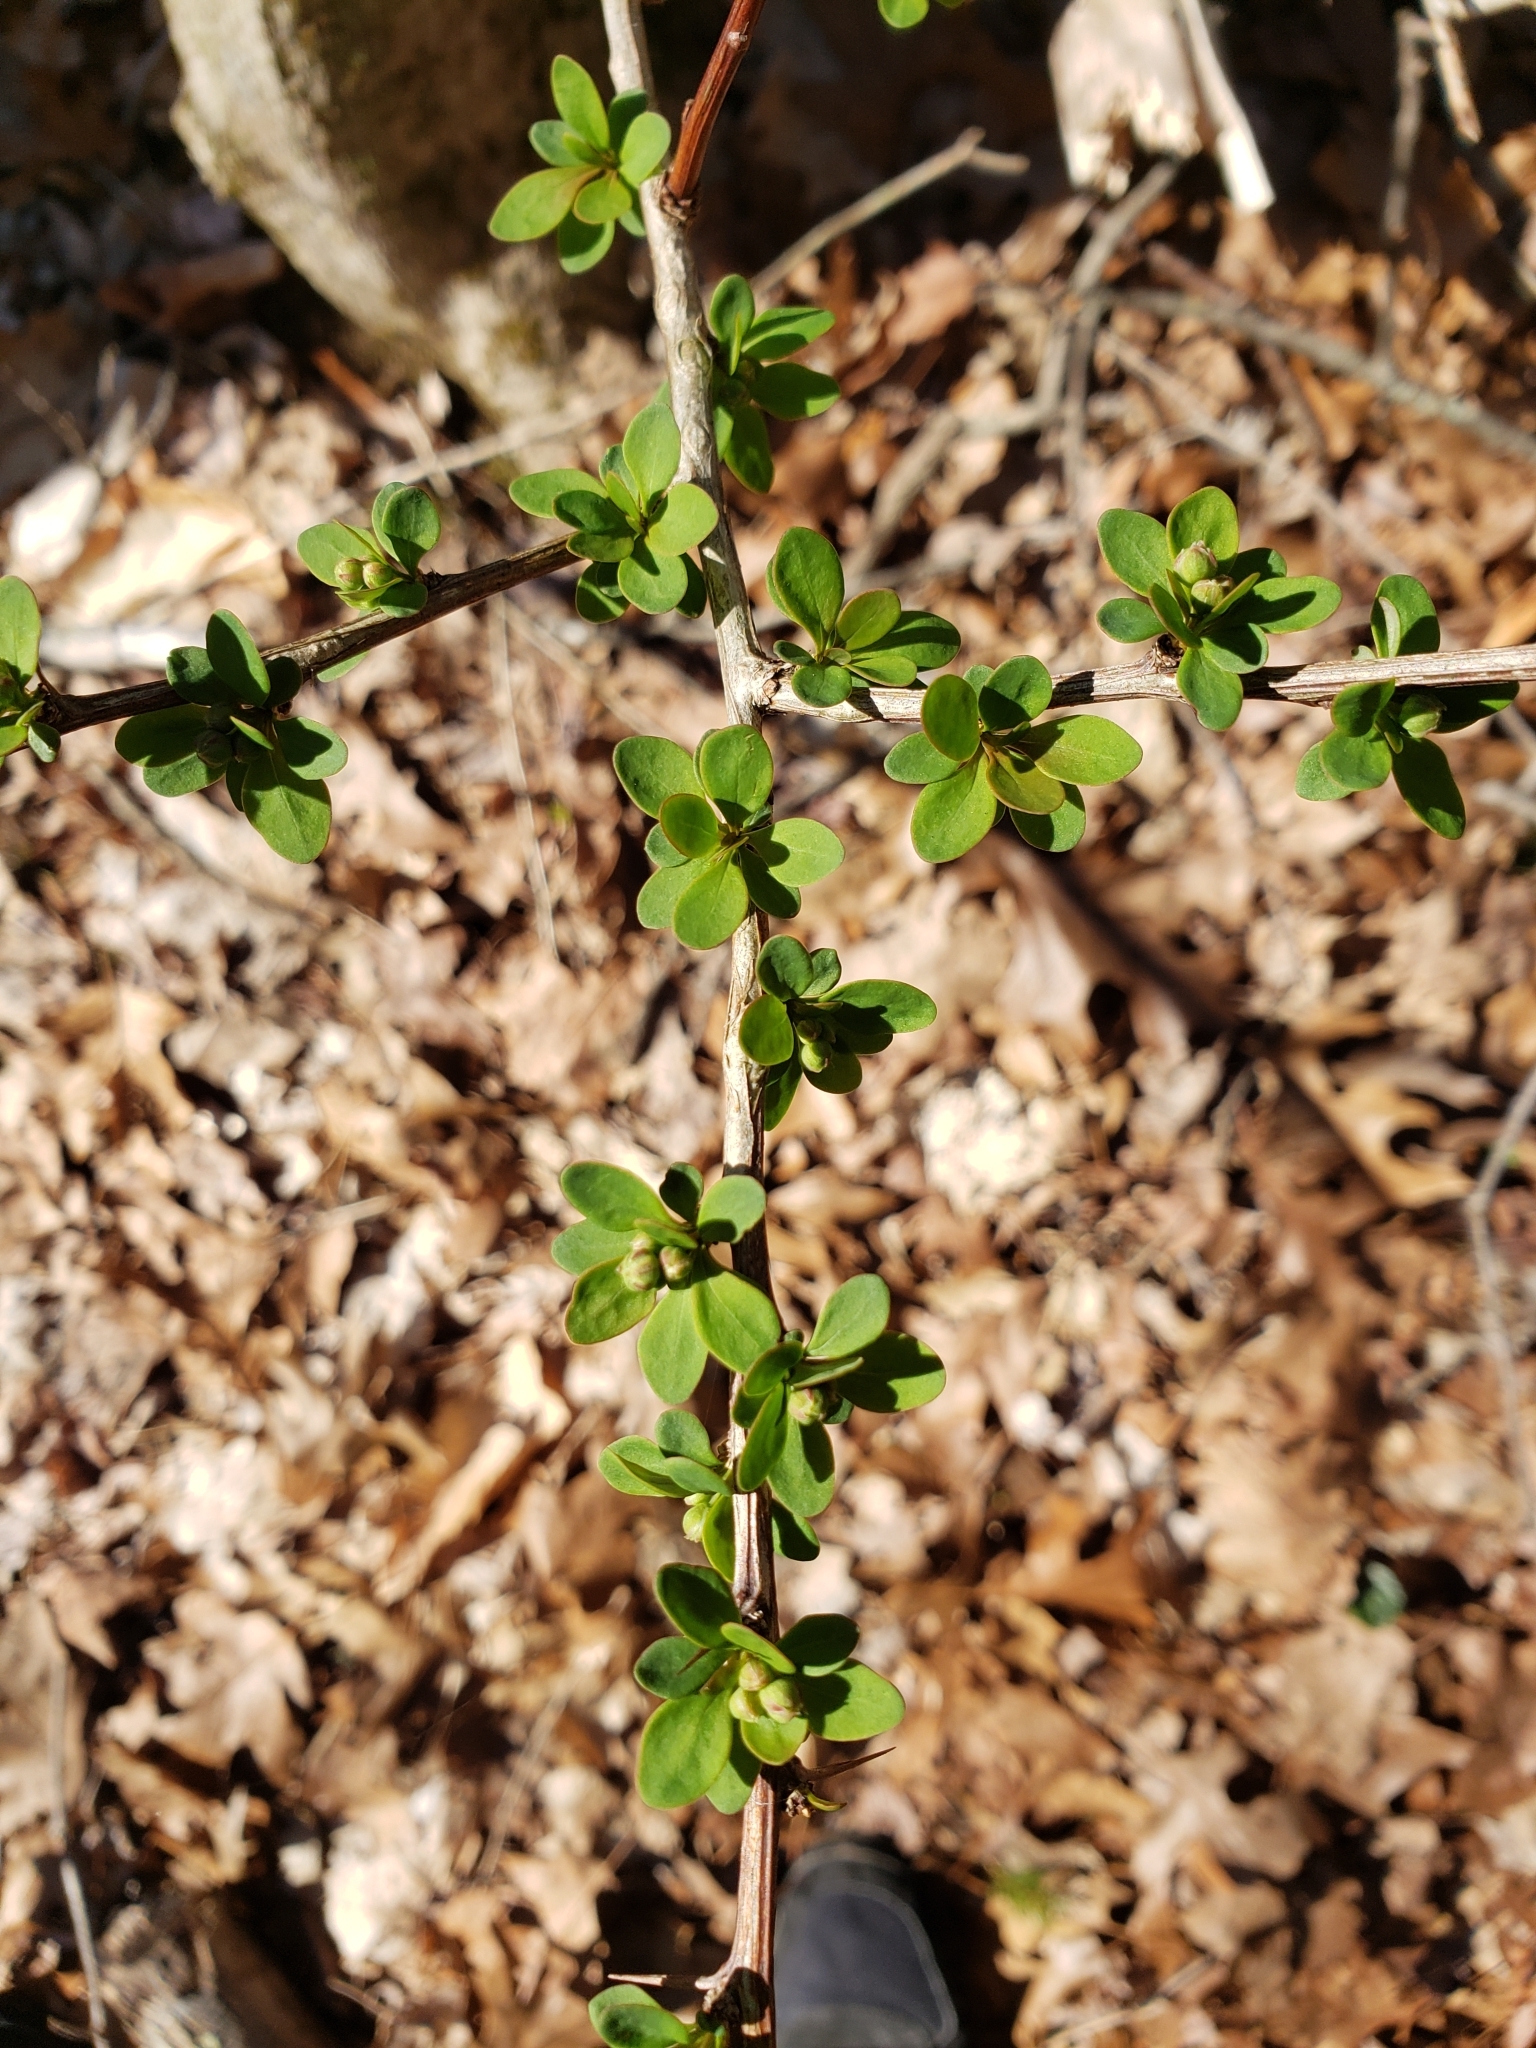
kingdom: Plantae
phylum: Tracheophyta
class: Magnoliopsida
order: Ranunculales
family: Berberidaceae
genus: Berberis
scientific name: Berberis thunbergii
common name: Japanese barberry
